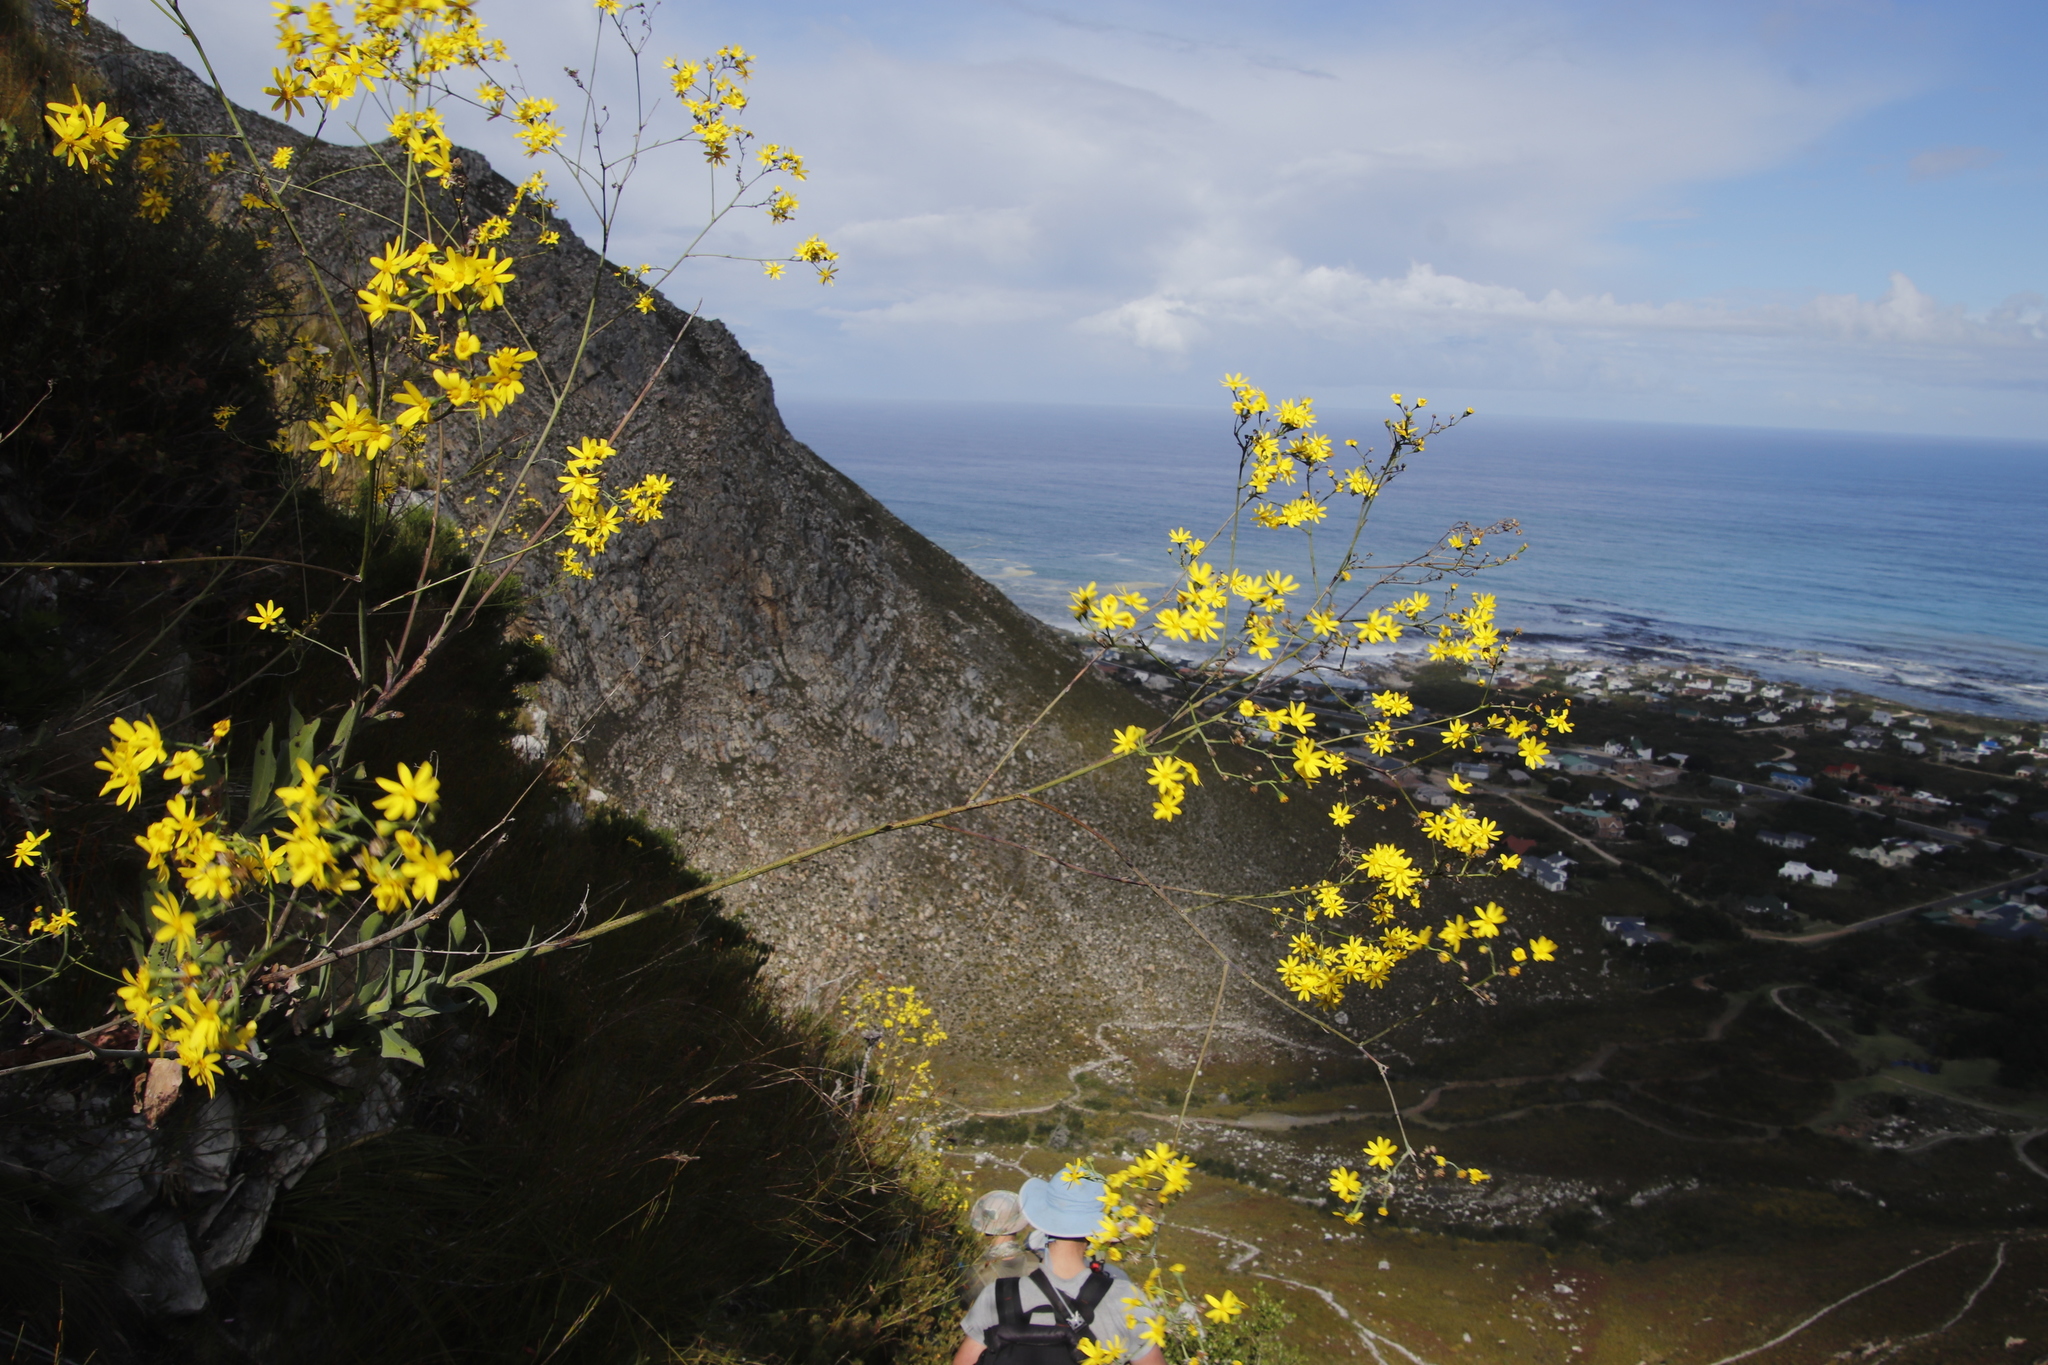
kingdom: Plantae
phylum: Tracheophyta
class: Magnoliopsida
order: Asterales
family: Asteraceae
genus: Othonna
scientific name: Othonna quinquedentata
